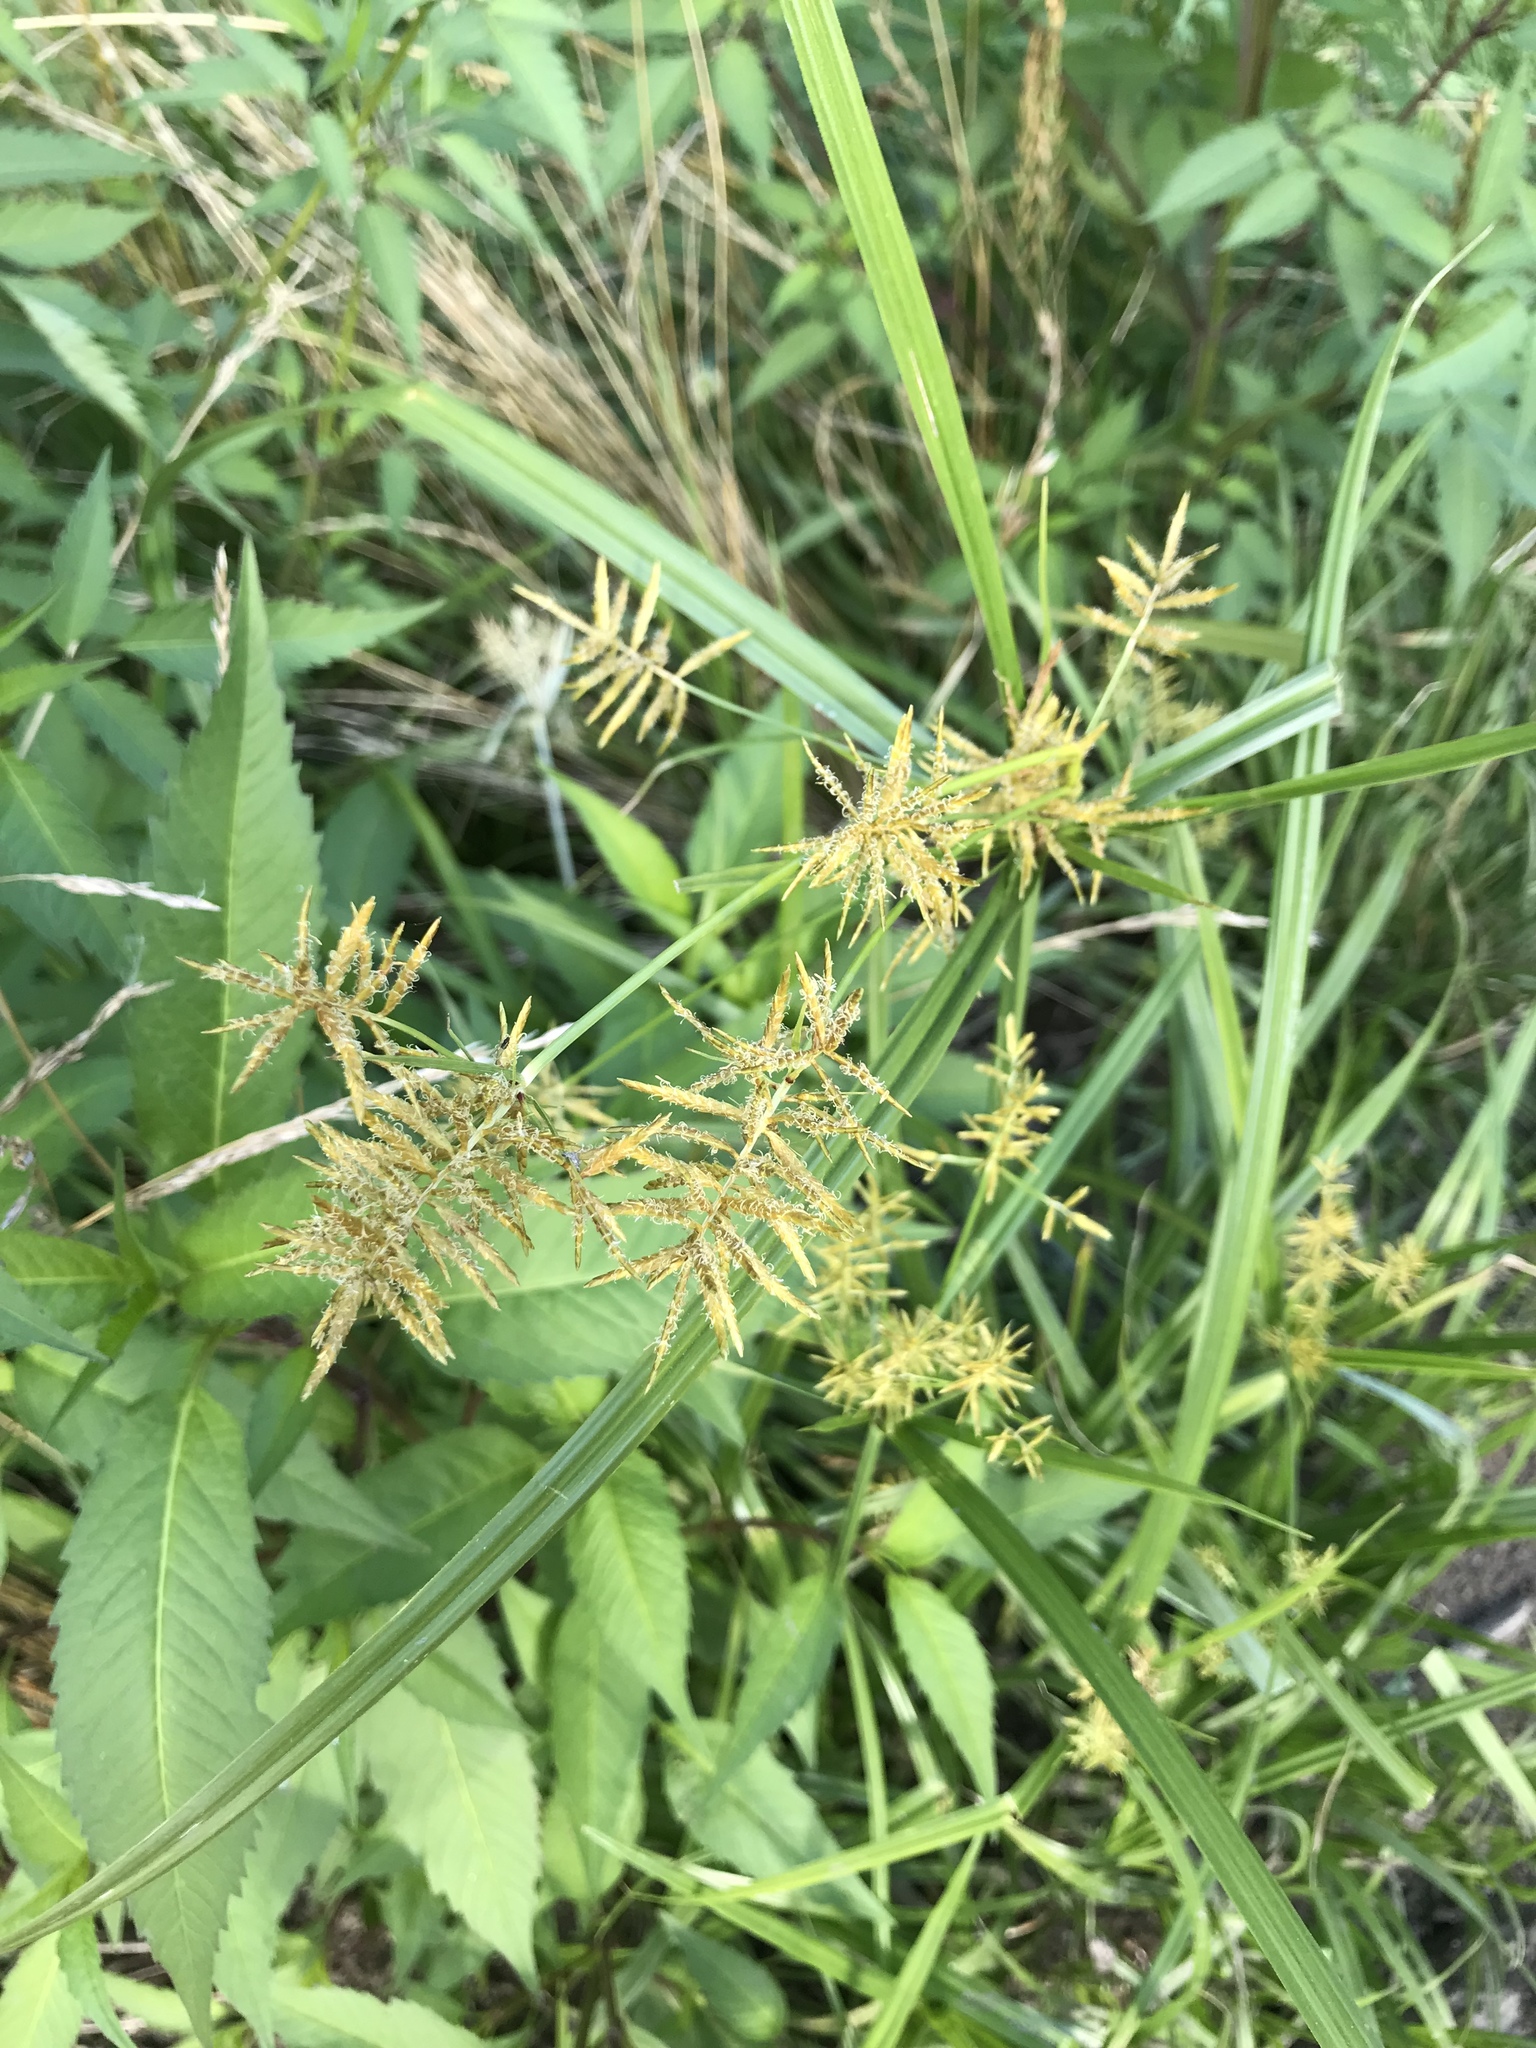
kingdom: Plantae
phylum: Tracheophyta
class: Liliopsida
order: Poales
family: Cyperaceae
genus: Cyperus
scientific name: Cyperus esculentus
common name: Yellow nutsedge
